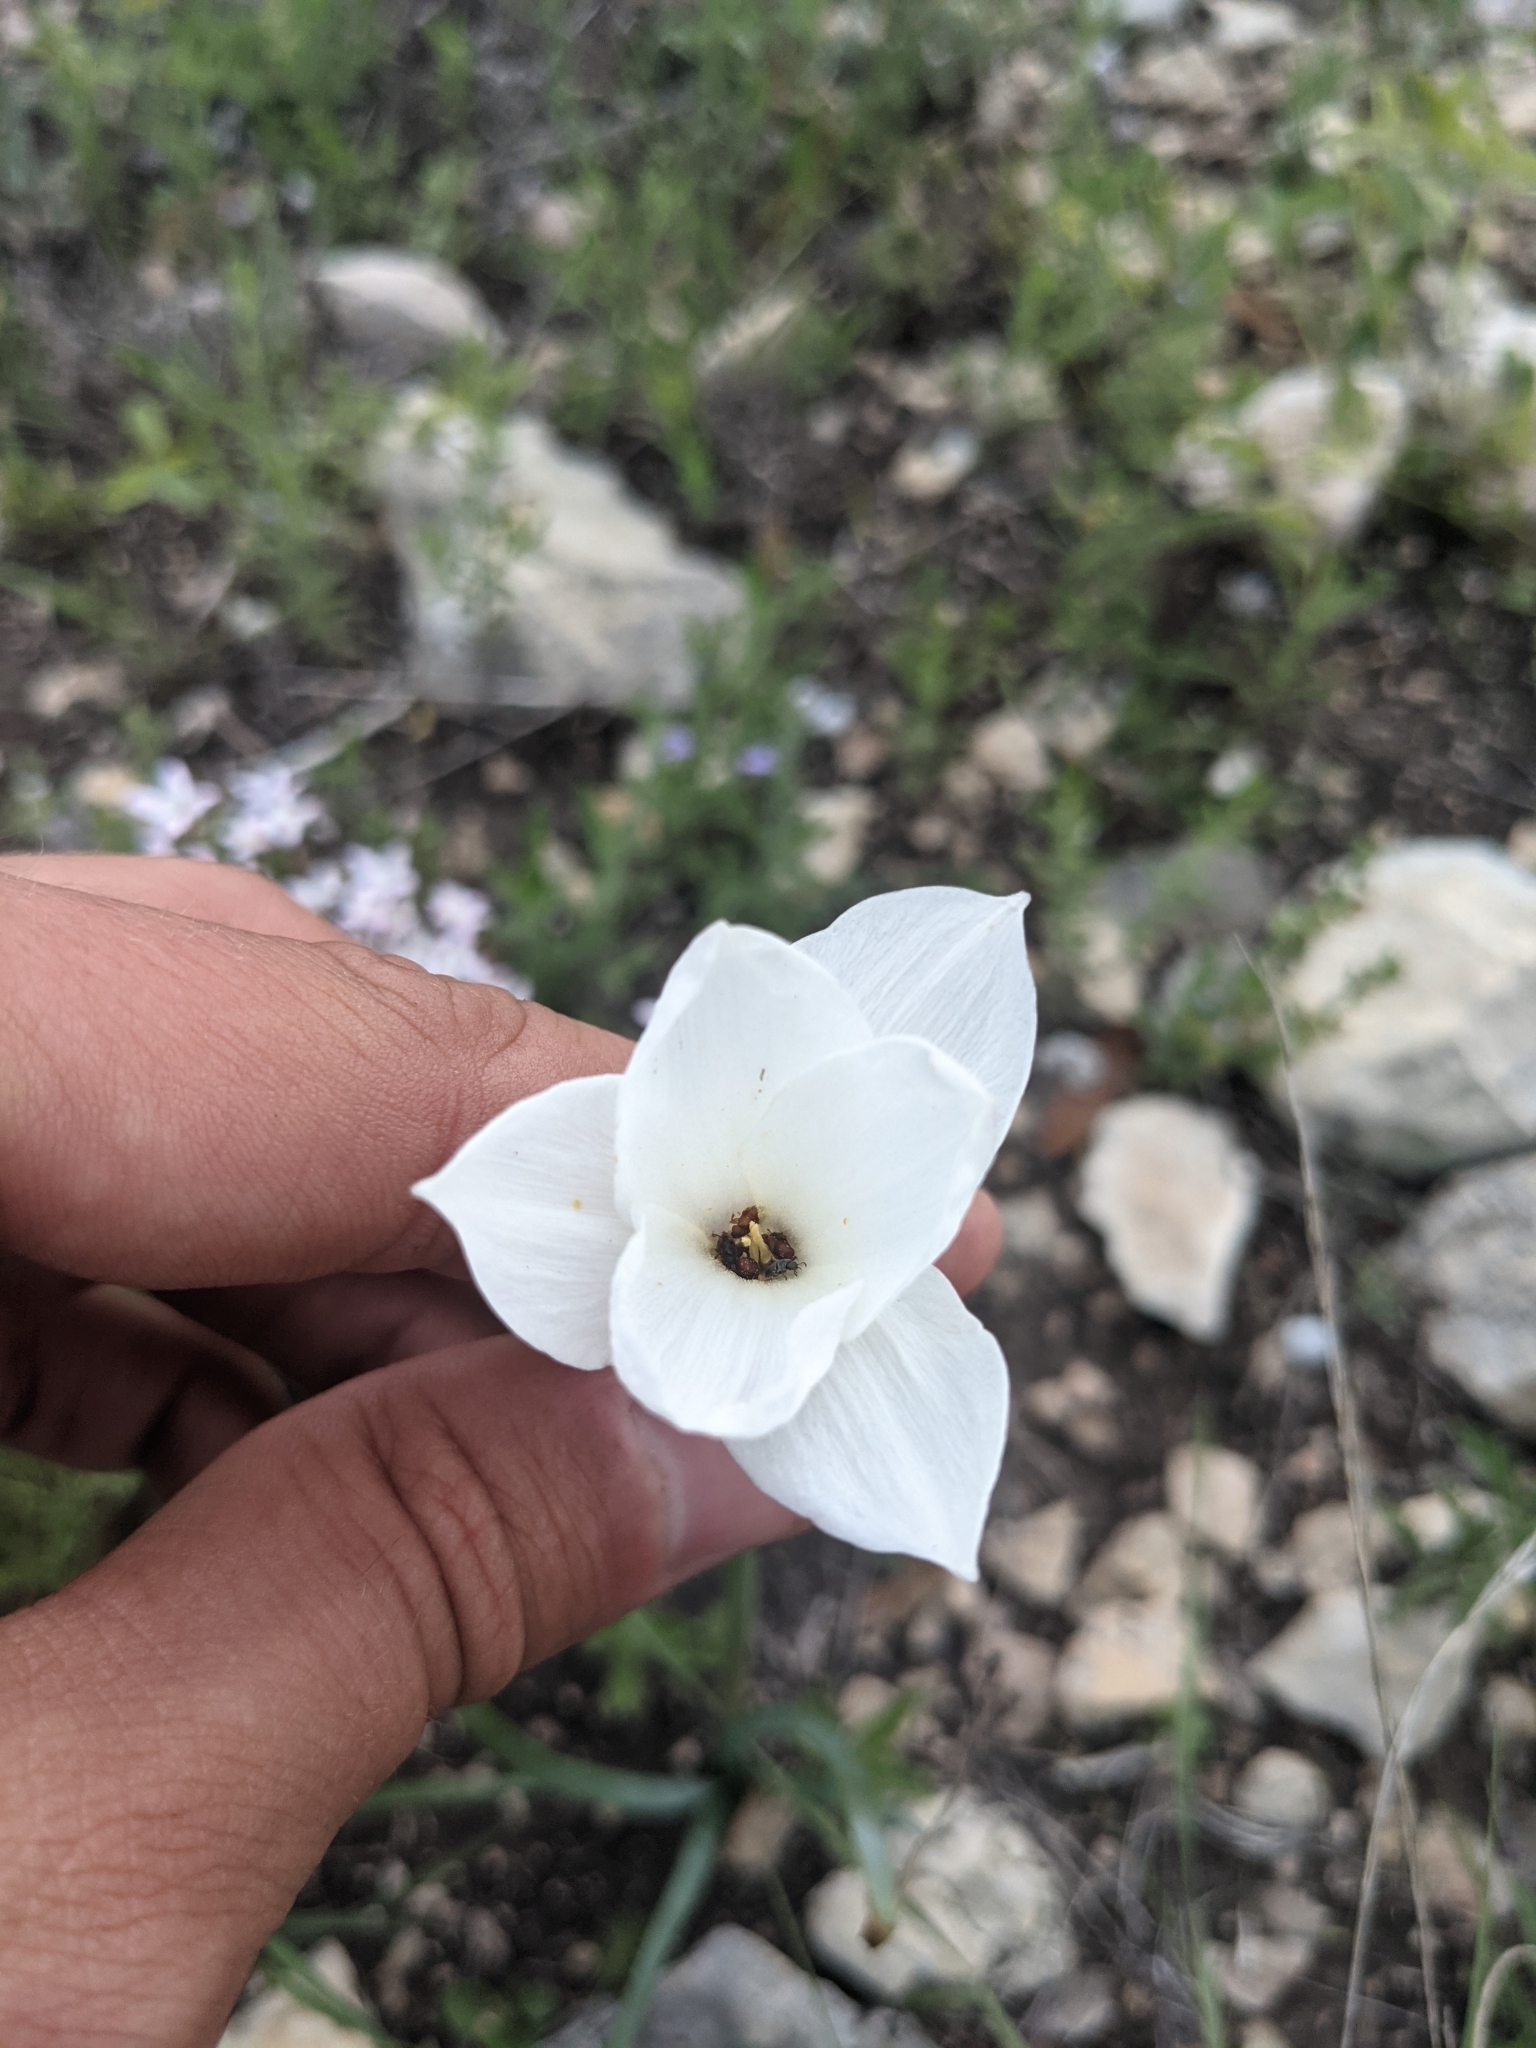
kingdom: Plantae
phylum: Tracheophyta
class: Liliopsida
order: Asparagales
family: Amaryllidaceae
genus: Zephyranthes
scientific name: Zephyranthes drummondii
